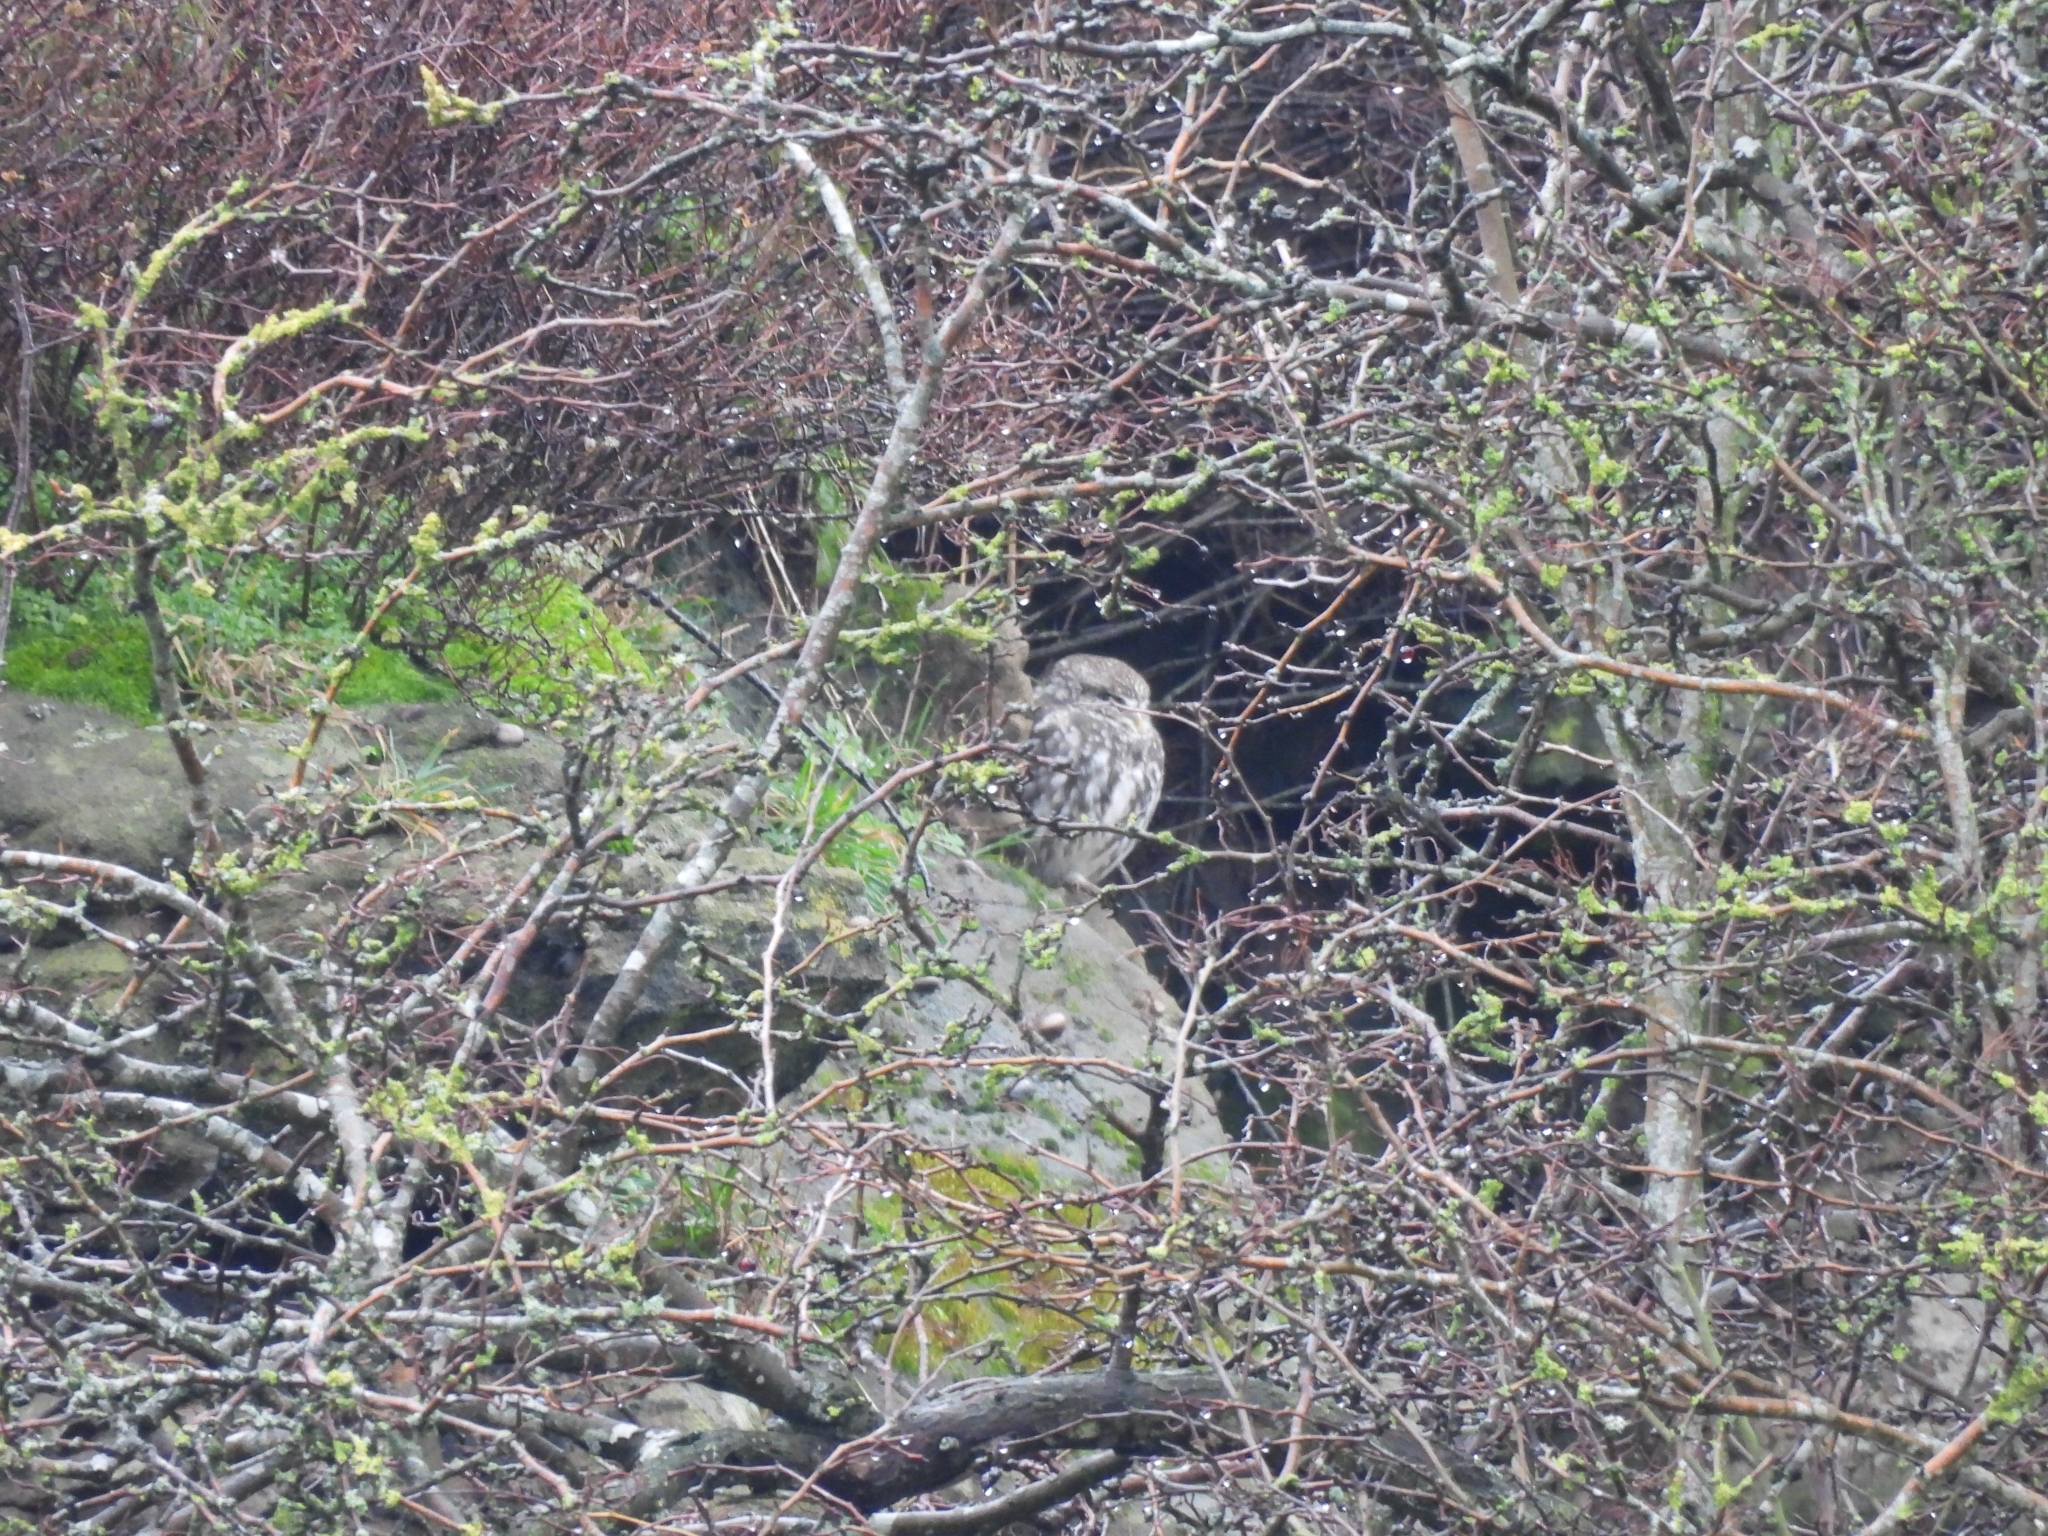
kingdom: Animalia
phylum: Chordata
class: Aves
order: Strigiformes
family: Strigidae
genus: Athene
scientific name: Athene noctua
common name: Little owl
